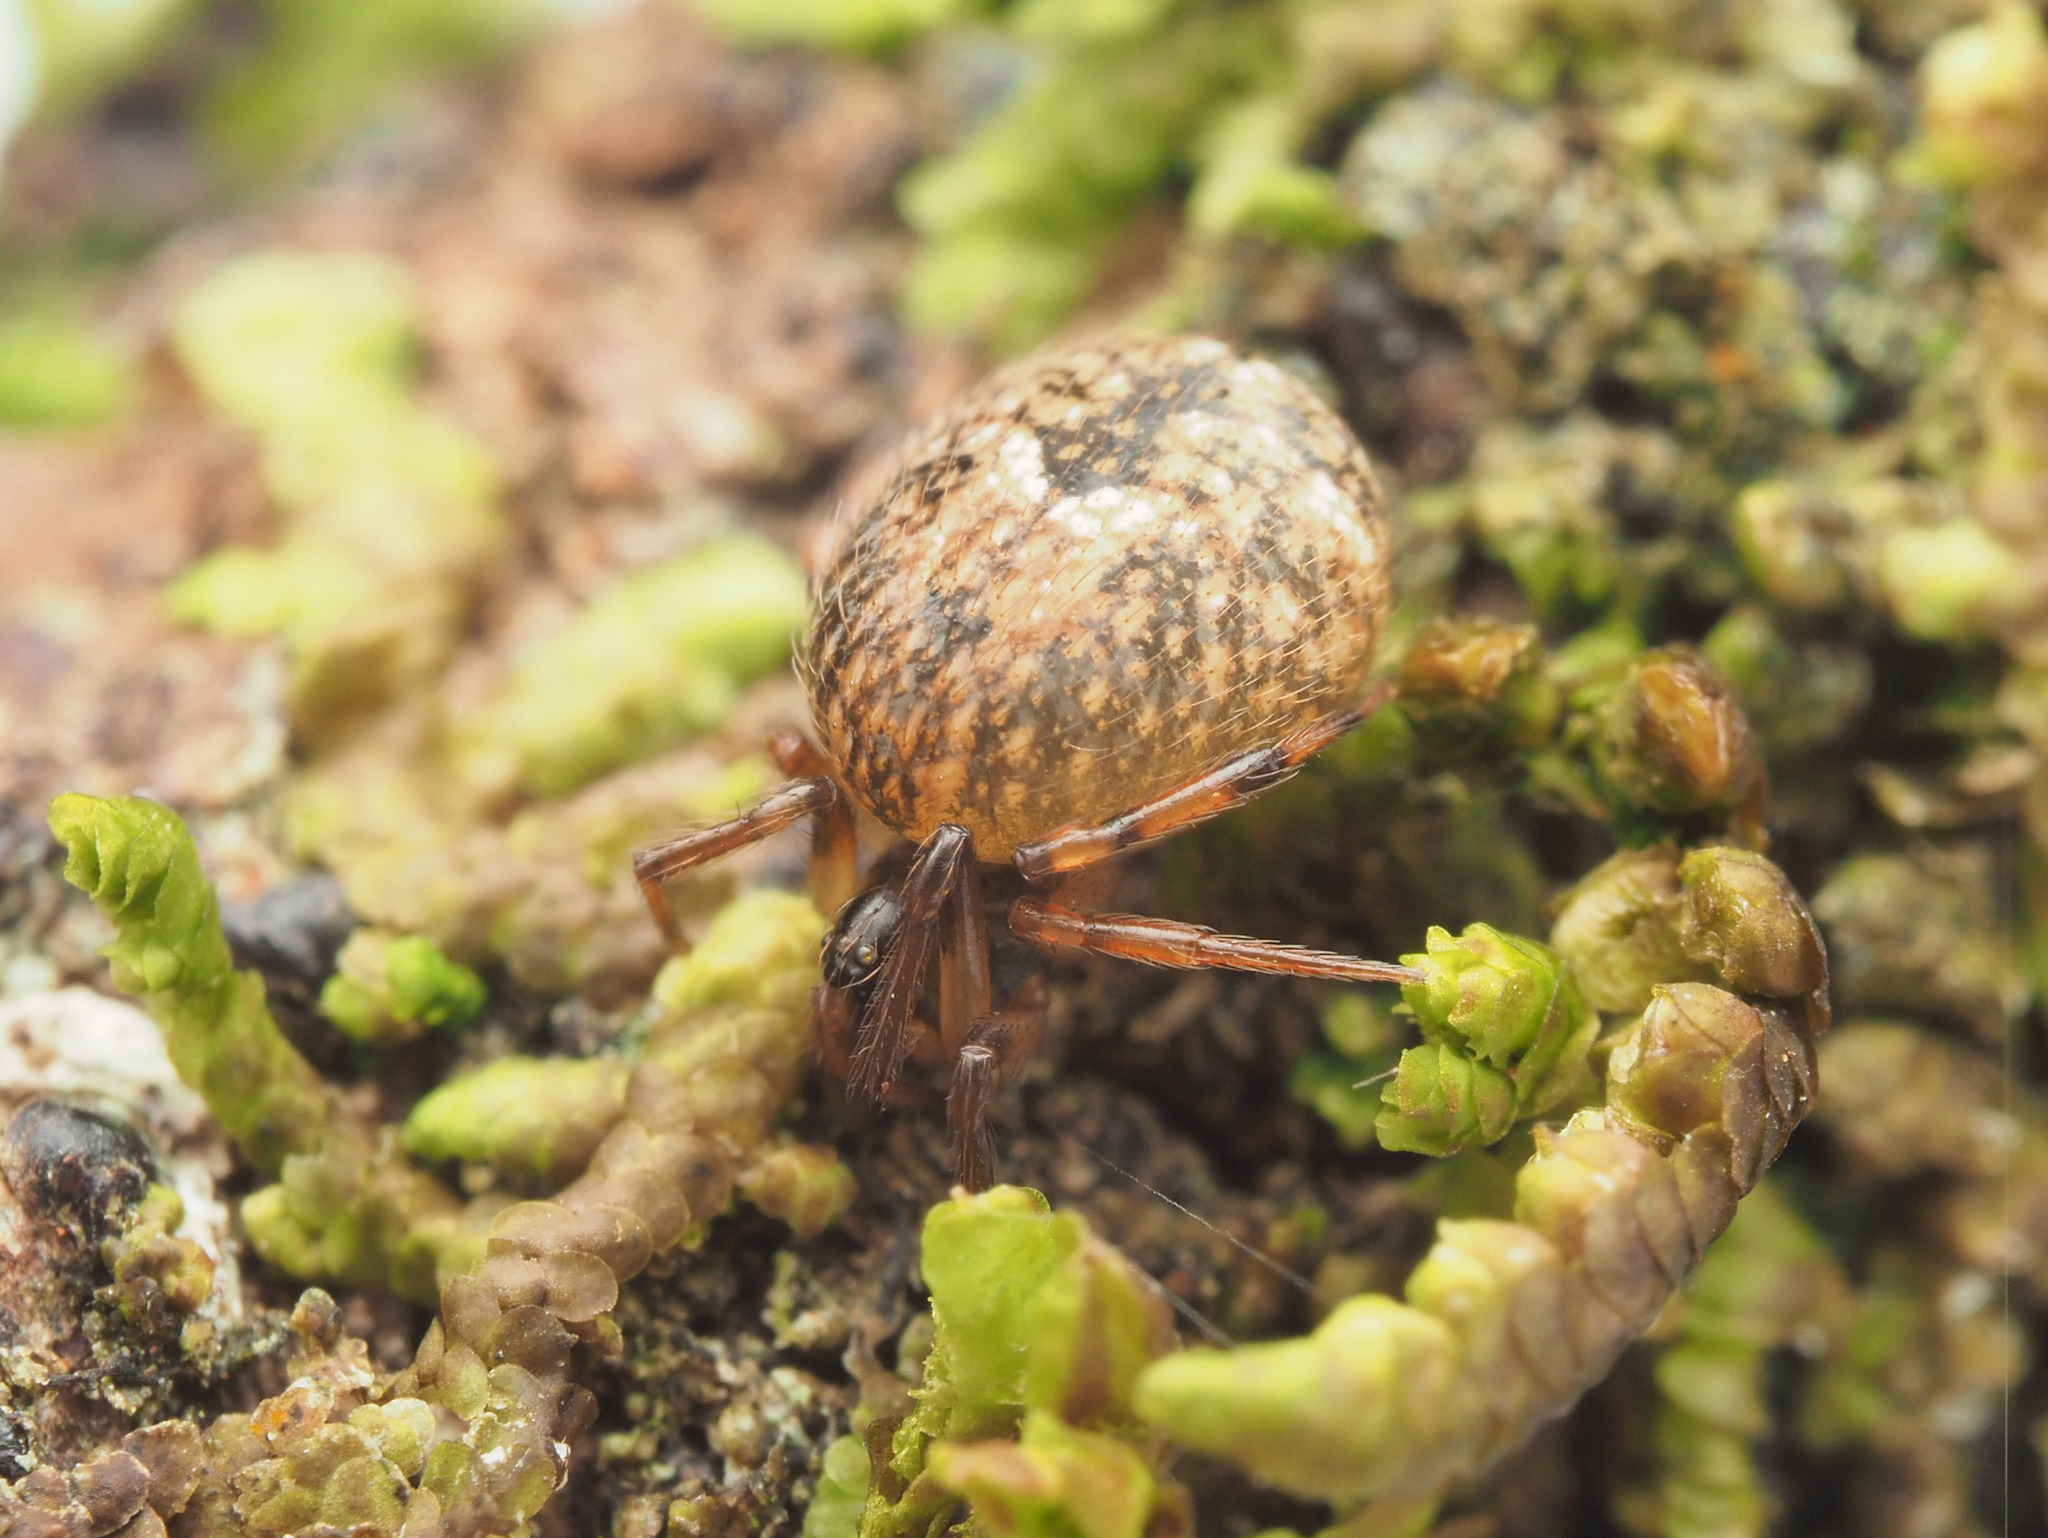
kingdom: Animalia
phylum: Arthropoda
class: Arachnida
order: Araneae
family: Theridiidae
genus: Dipoena
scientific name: Dipoena
